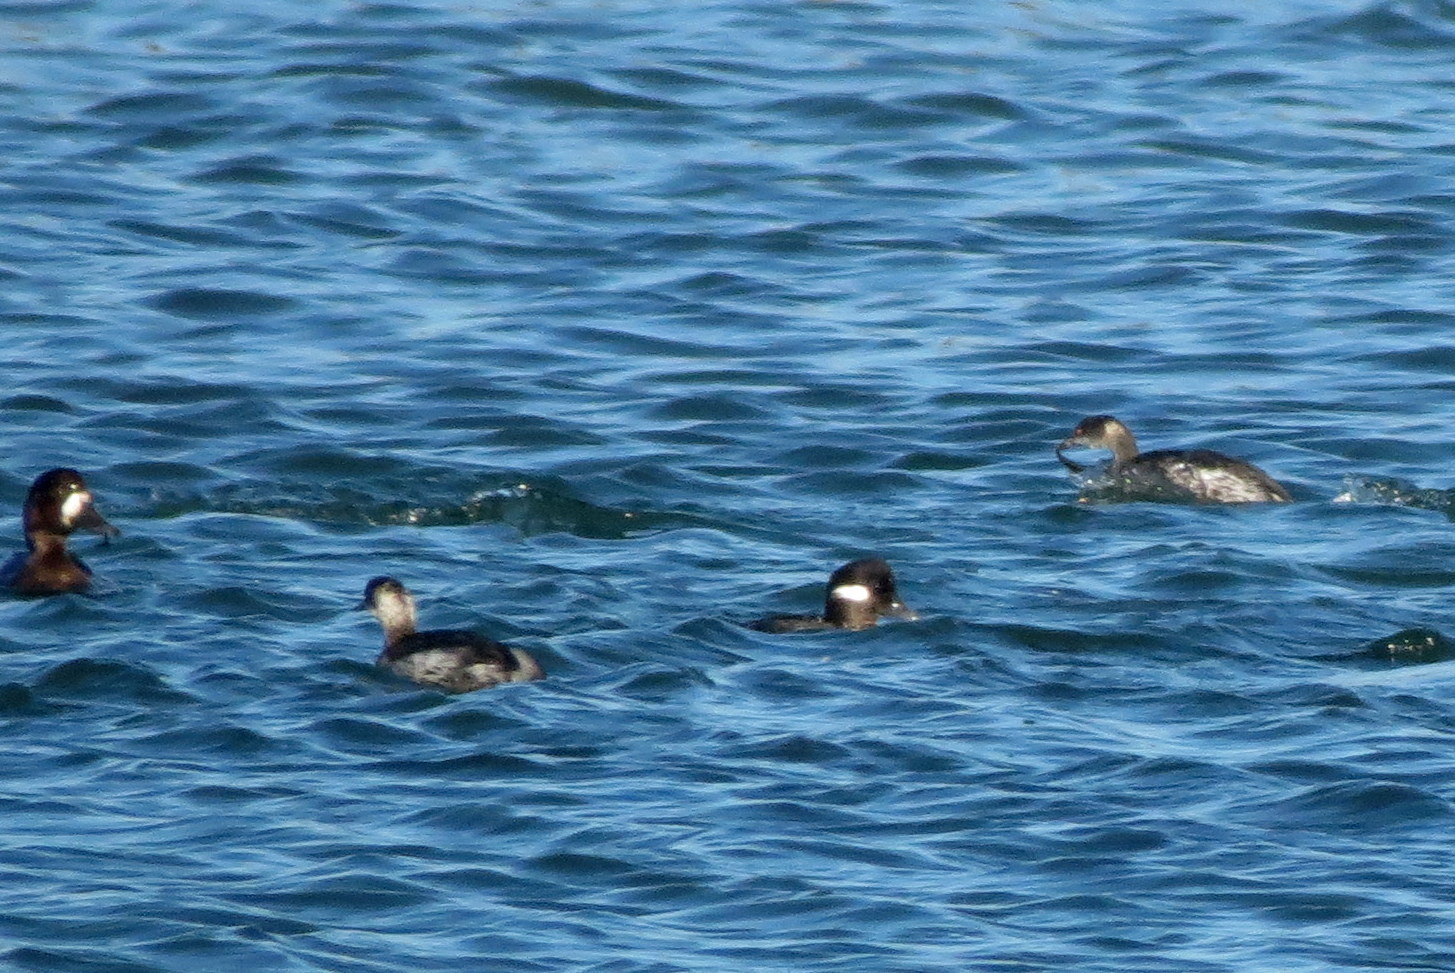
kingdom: Animalia
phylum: Chordata
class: Aves
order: Anseriformes
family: Anatidae
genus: Bucephala
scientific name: Bucephala albeola
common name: Bufflehead
